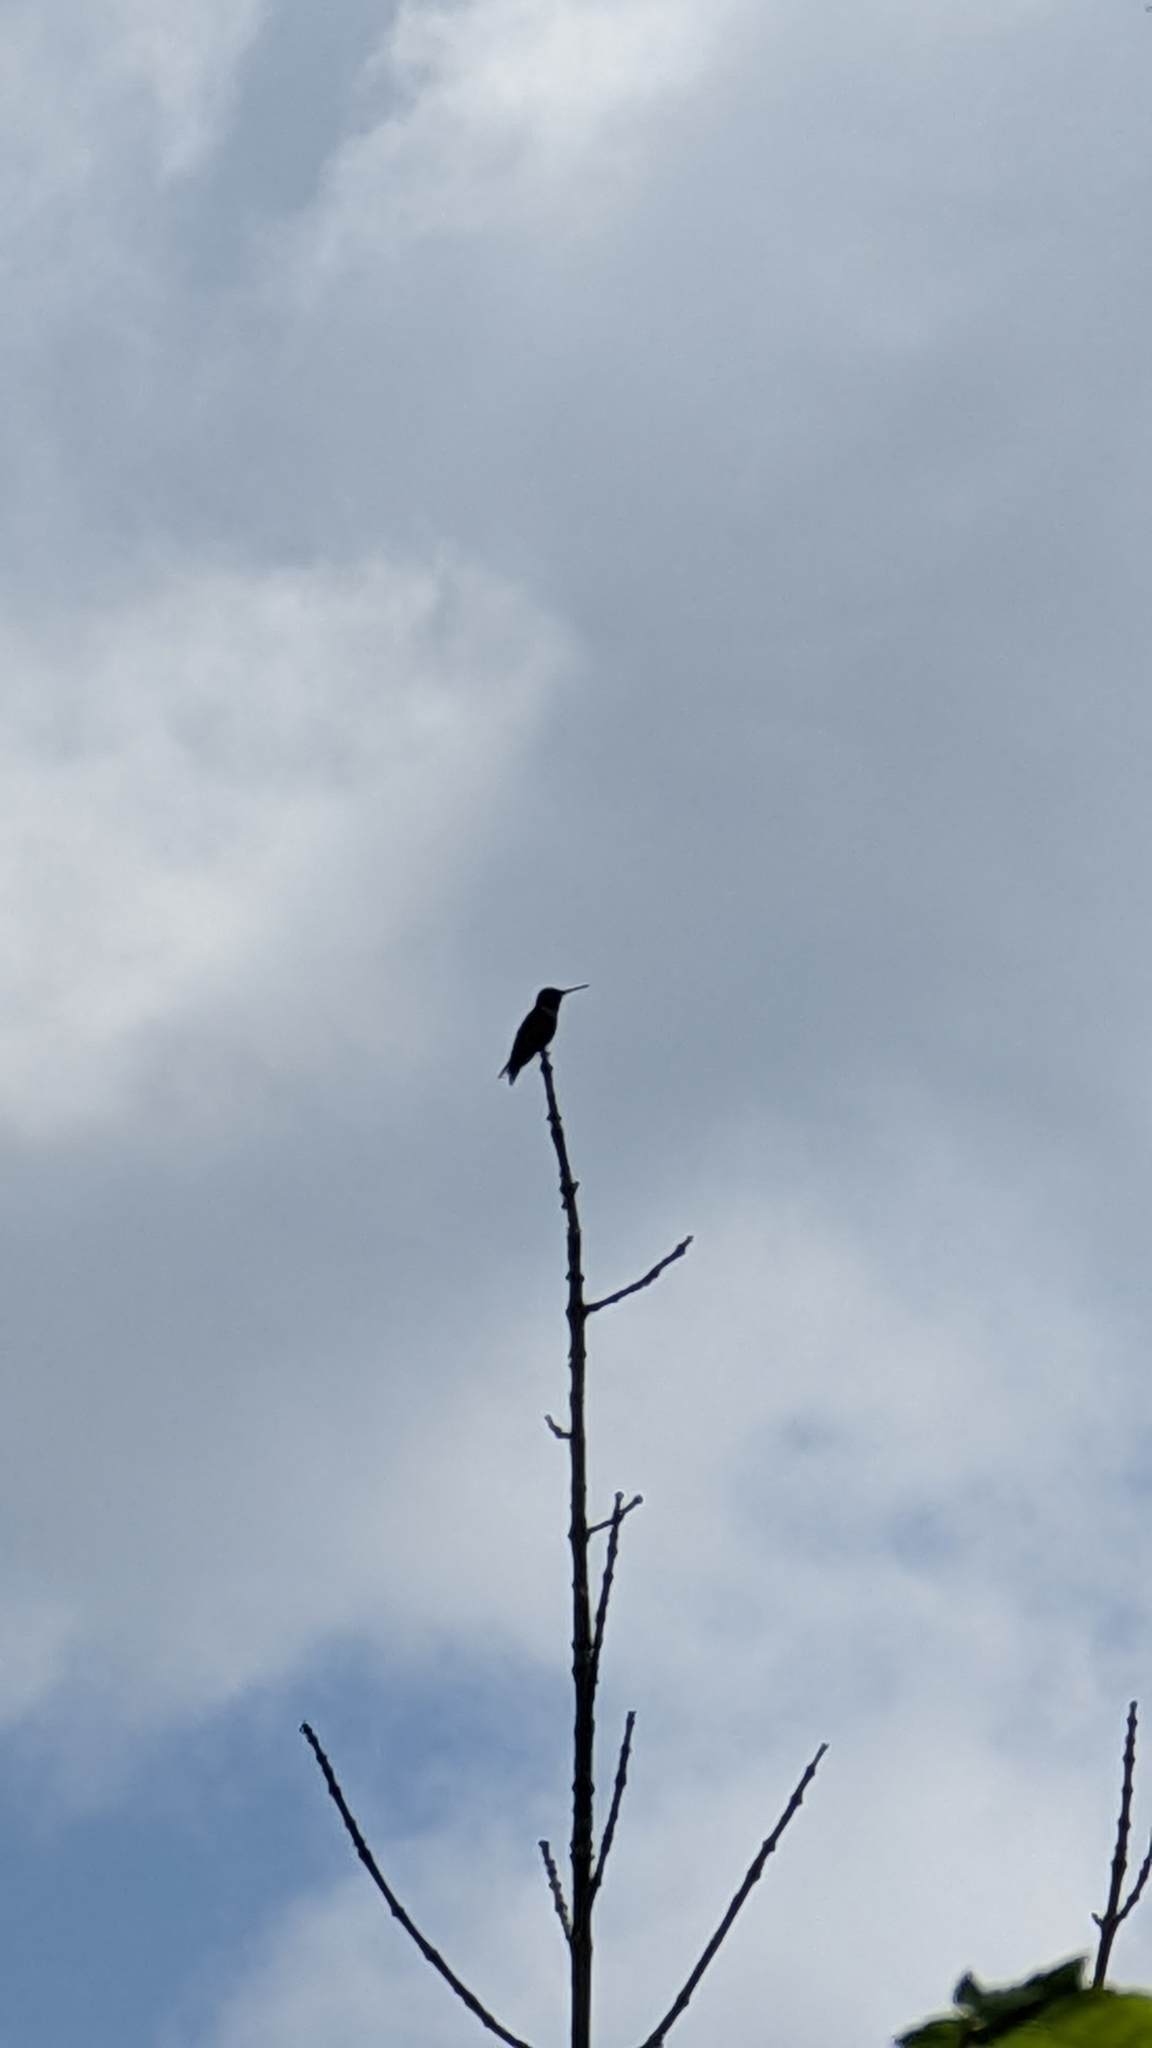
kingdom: Animalia
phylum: Chordata
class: Aves
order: Apodiformes
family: Trochilidae
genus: Archilochus
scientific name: Archilochus colubris
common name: Ruby-throated hummingbird
